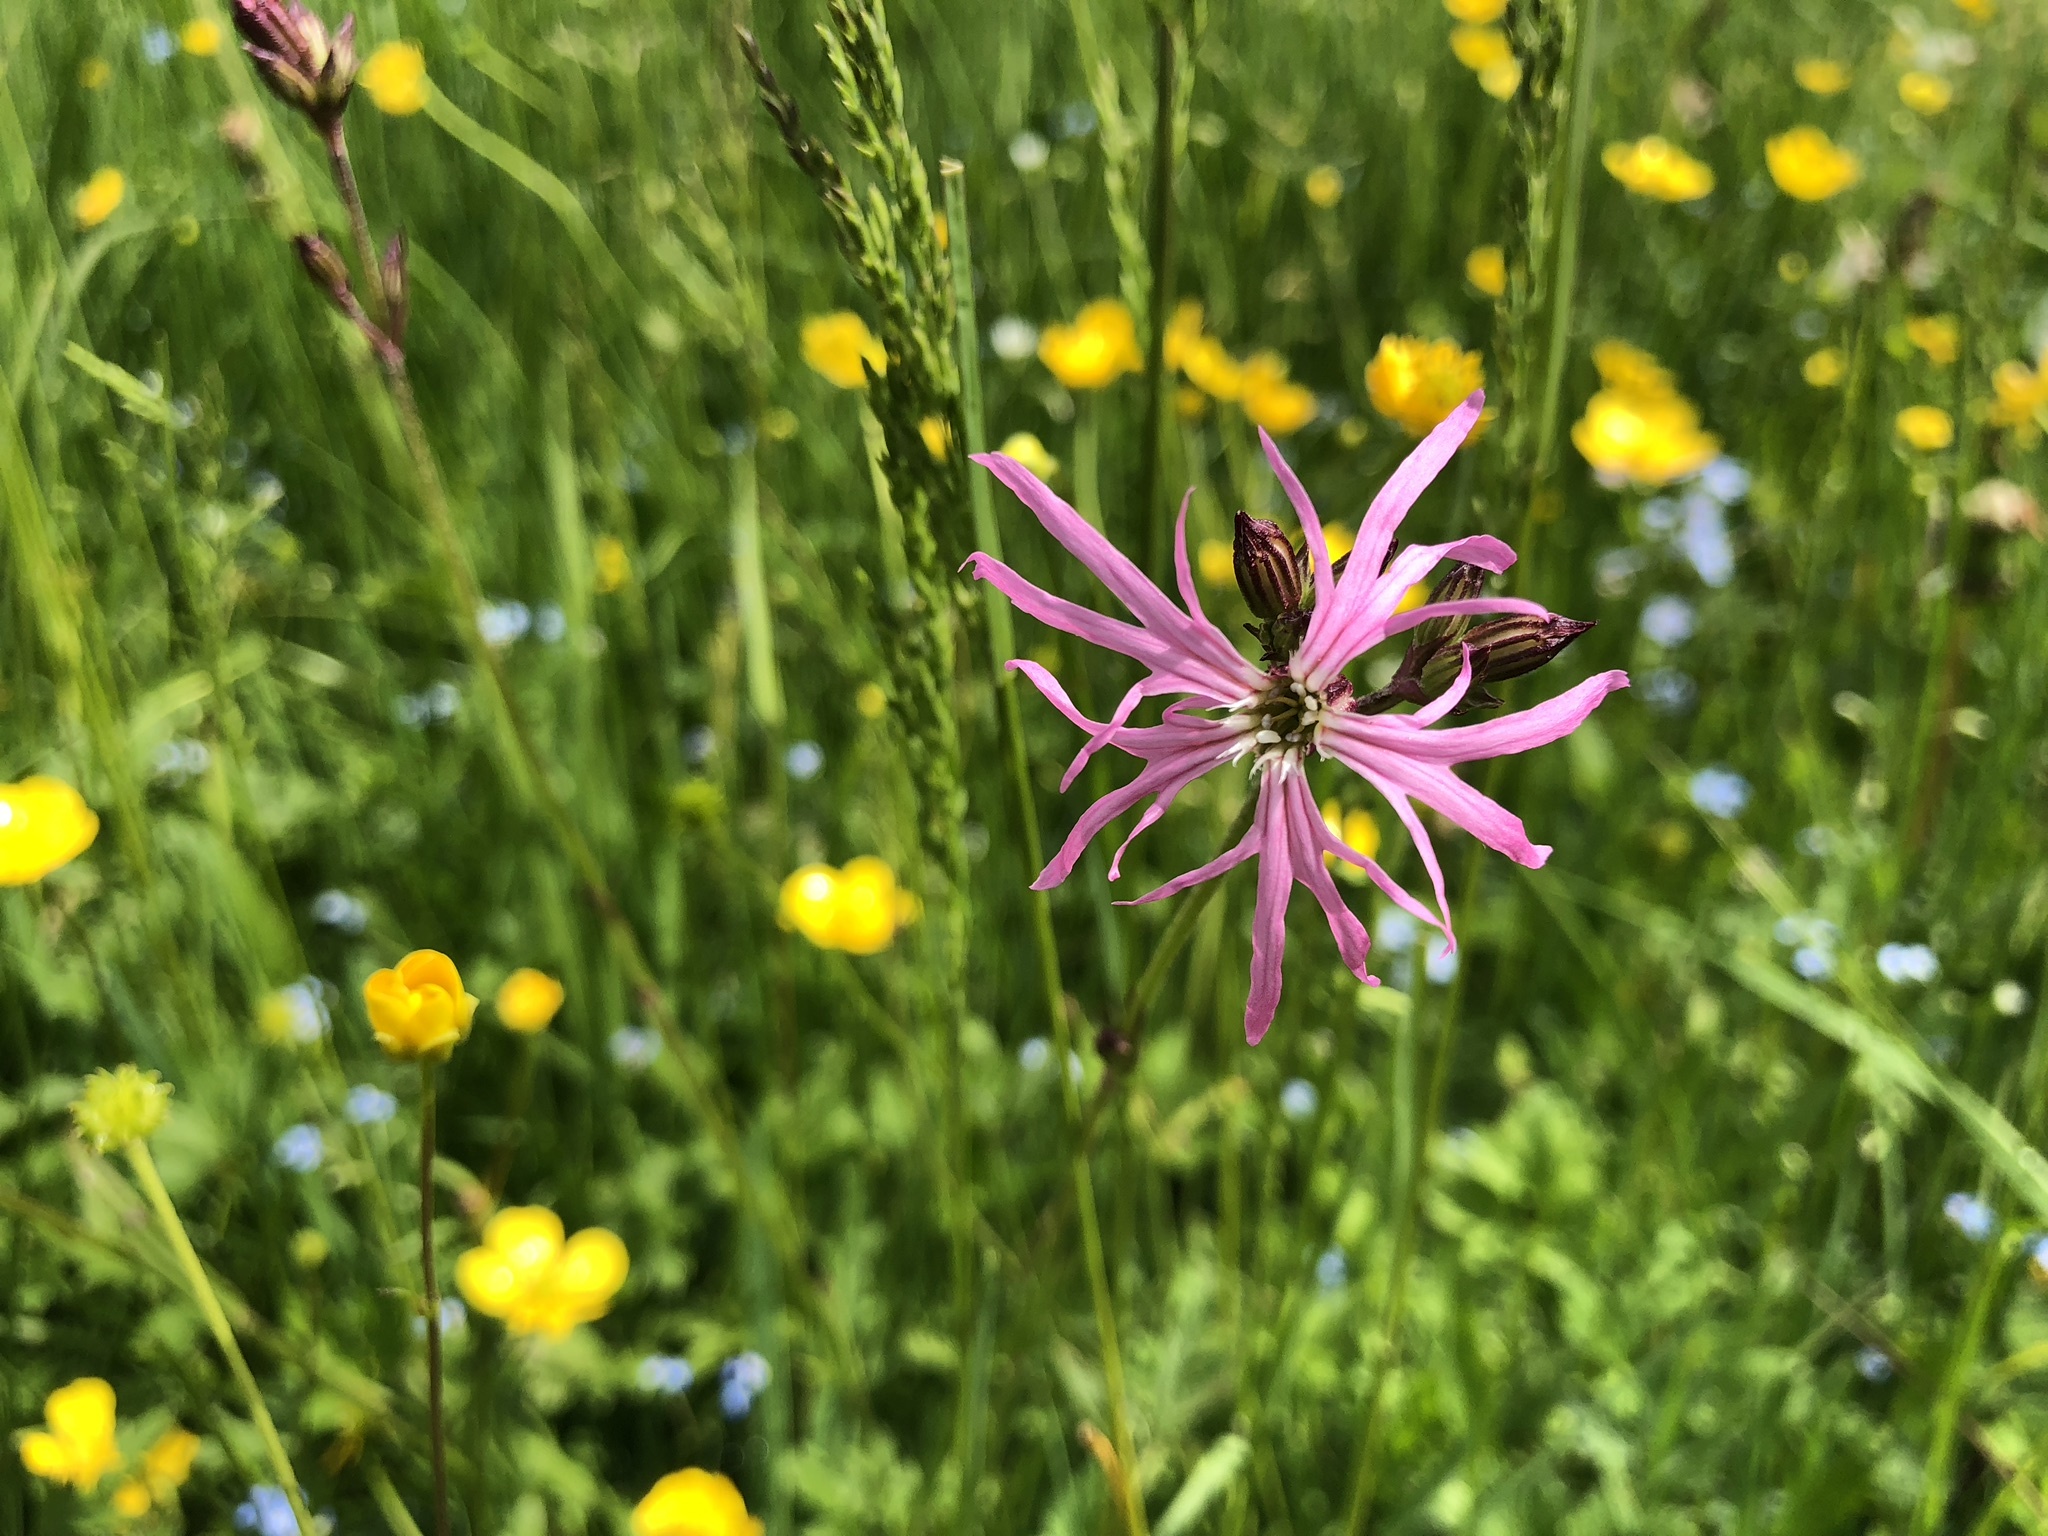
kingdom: Plantae
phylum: Tracheophyta
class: Magnoliopsida
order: Caryophyllales
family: Caryophyllaceae
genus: Silene
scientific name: Silene flos-cuculi
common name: Ragged-robin
